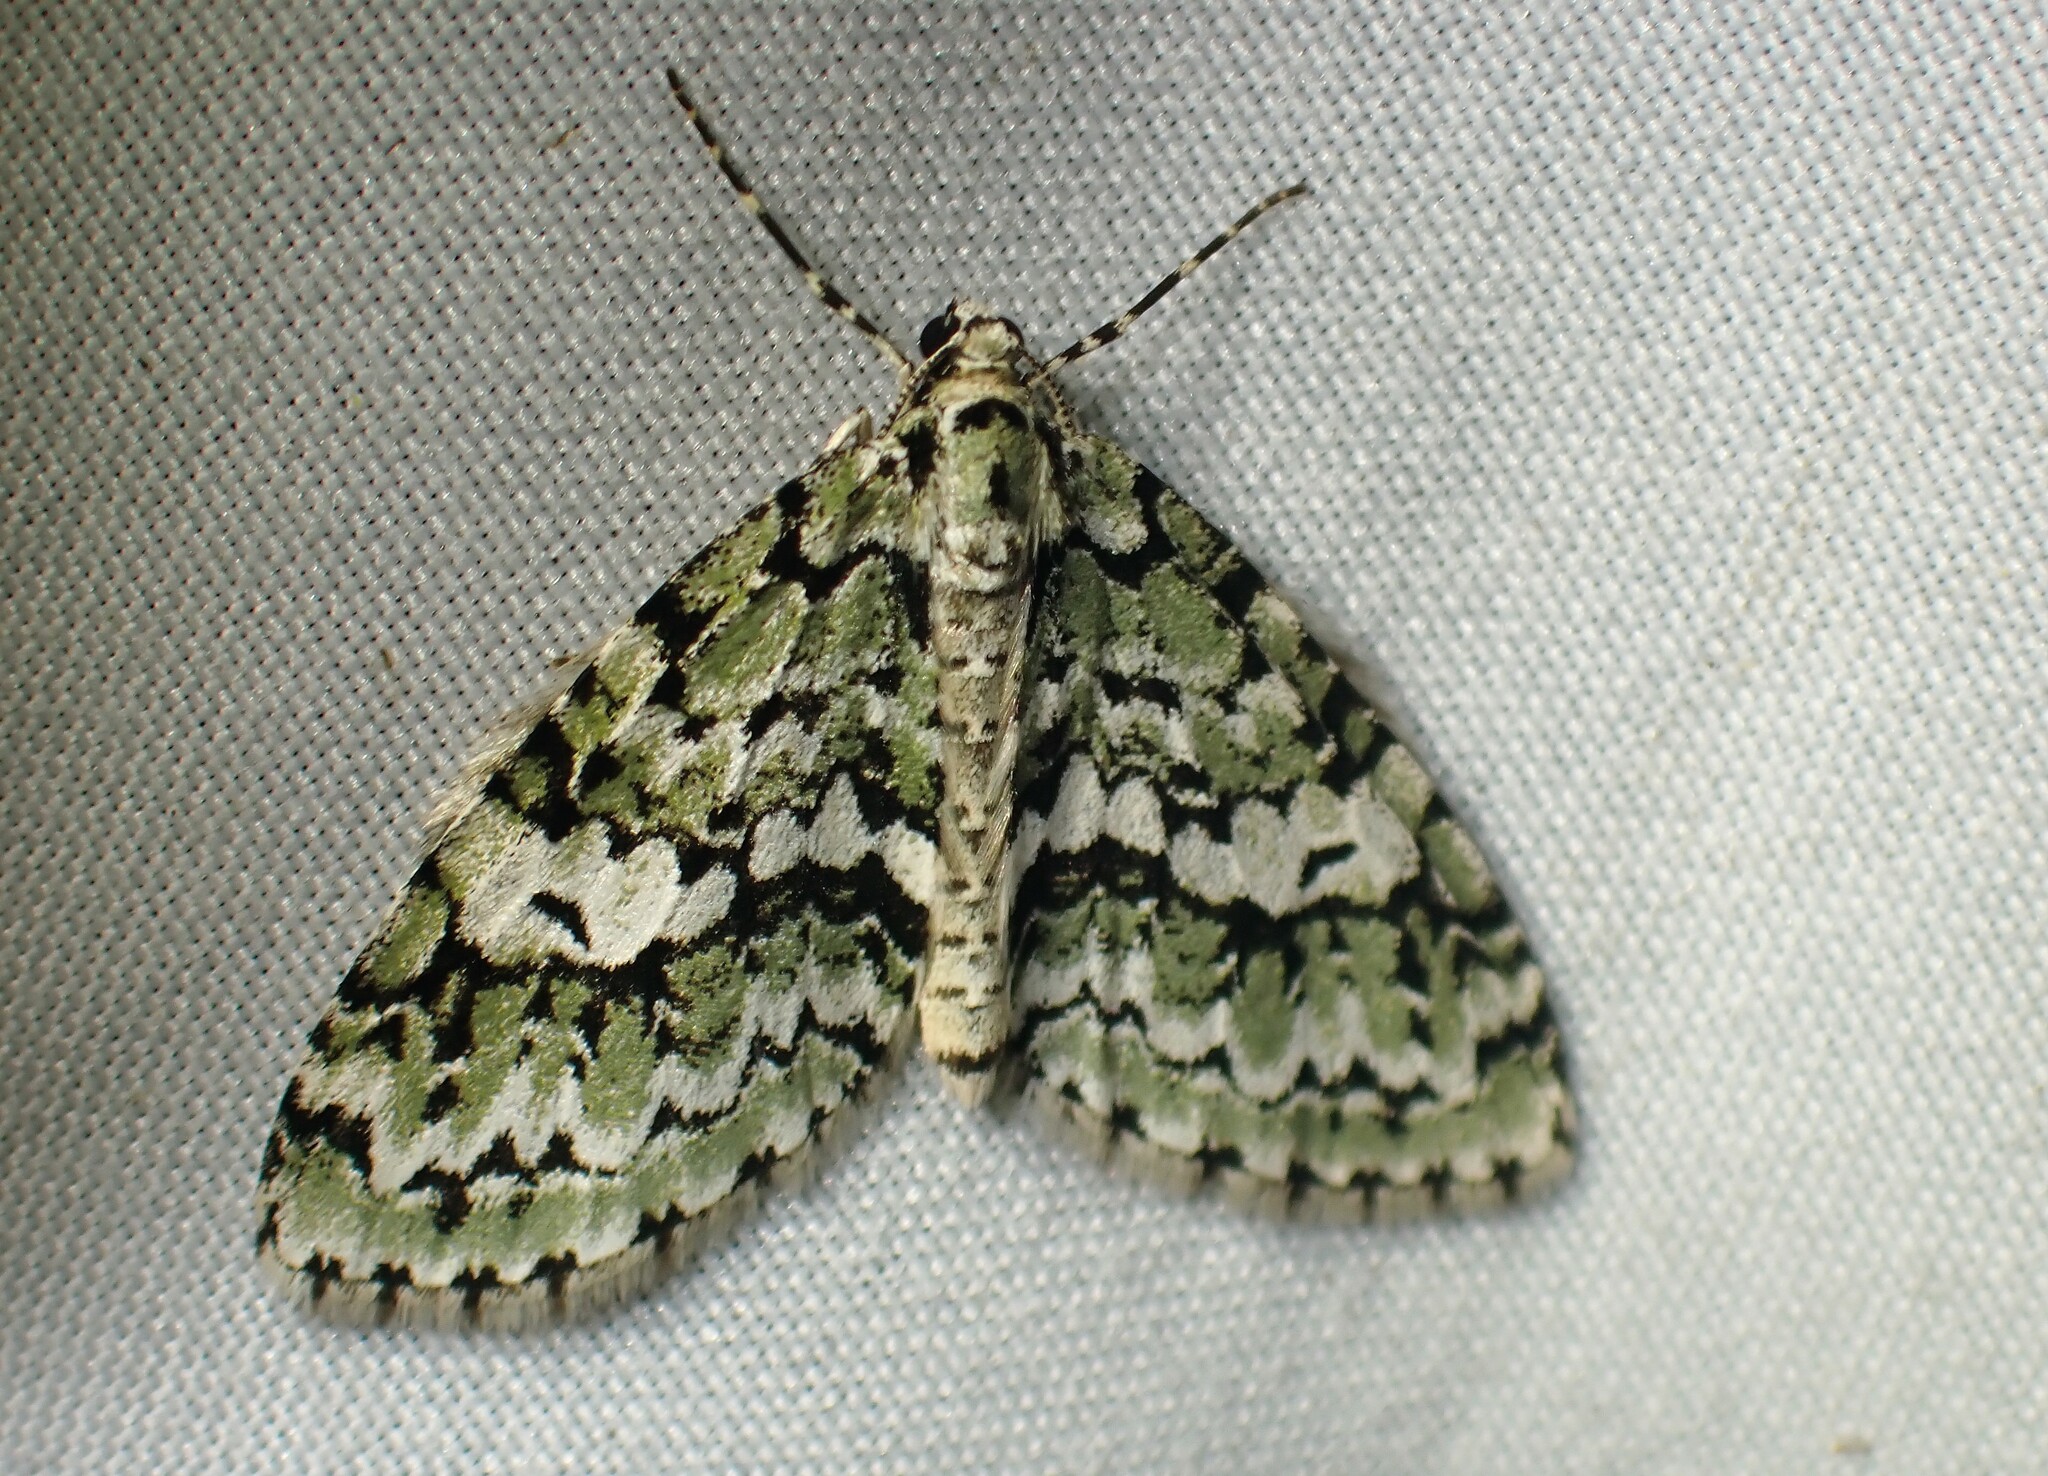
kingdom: Animalia
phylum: Arthropoda
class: Insecta
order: Lepidoptera
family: Geometridae
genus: Cladara
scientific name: Cladara atroliturata
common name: Scribbler
